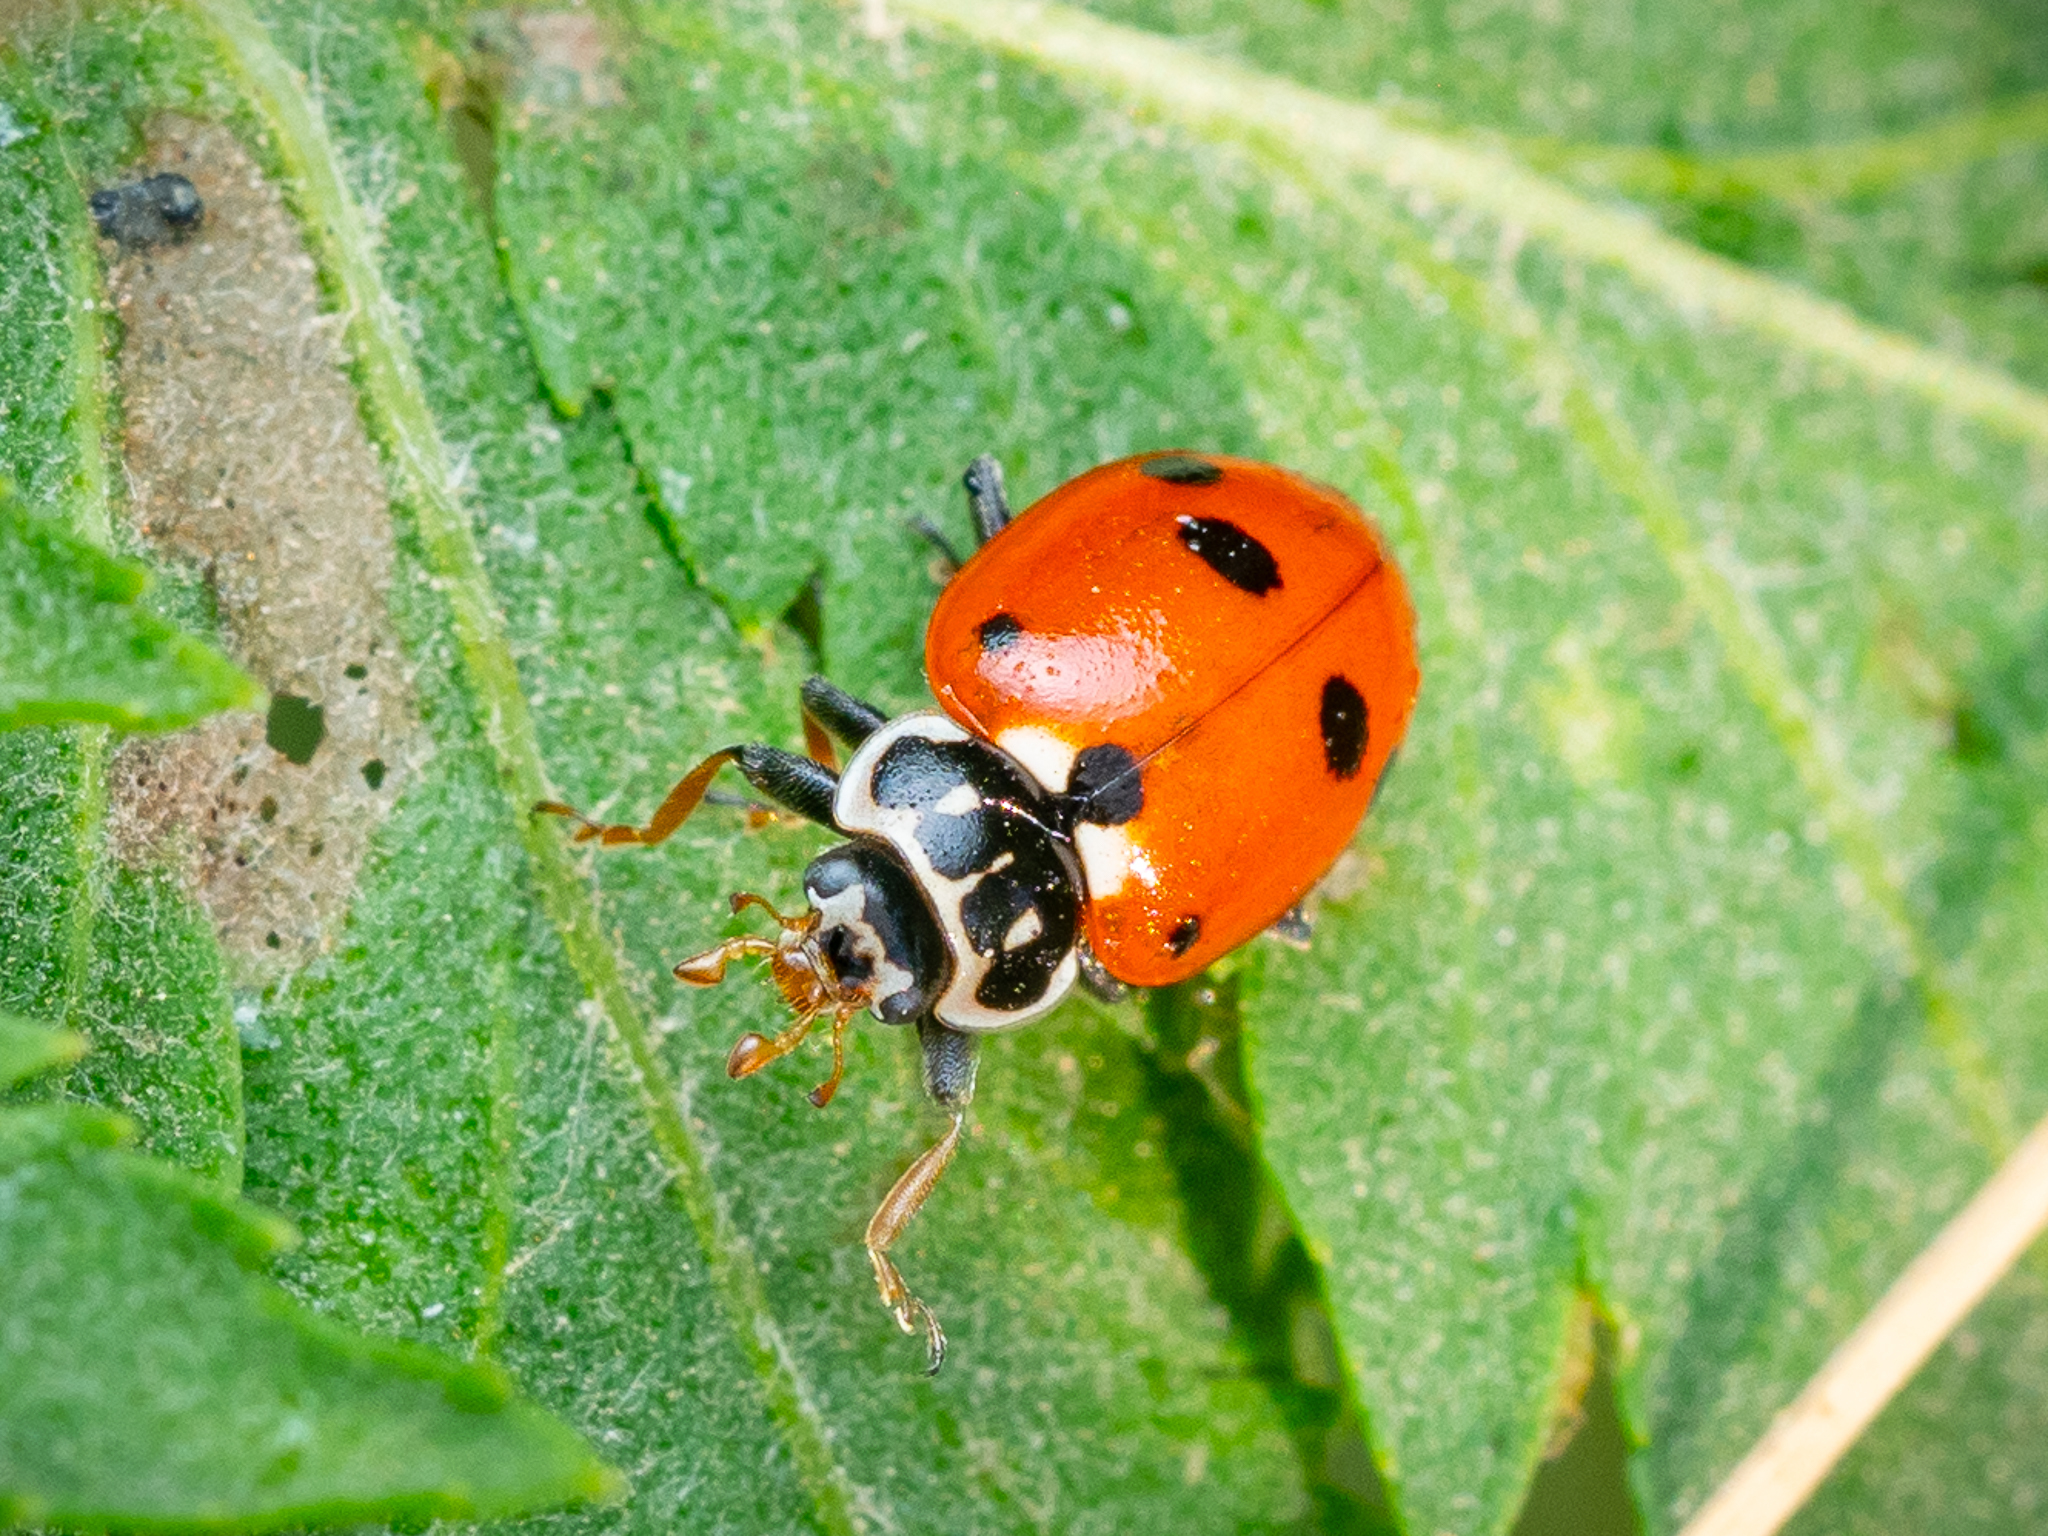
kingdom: Animalia
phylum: Arthropoda
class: Insecta
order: Coleoptera
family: Coccinellidae
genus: Hippodamia
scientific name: Hippodamia variegata
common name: Ladybird beetle
